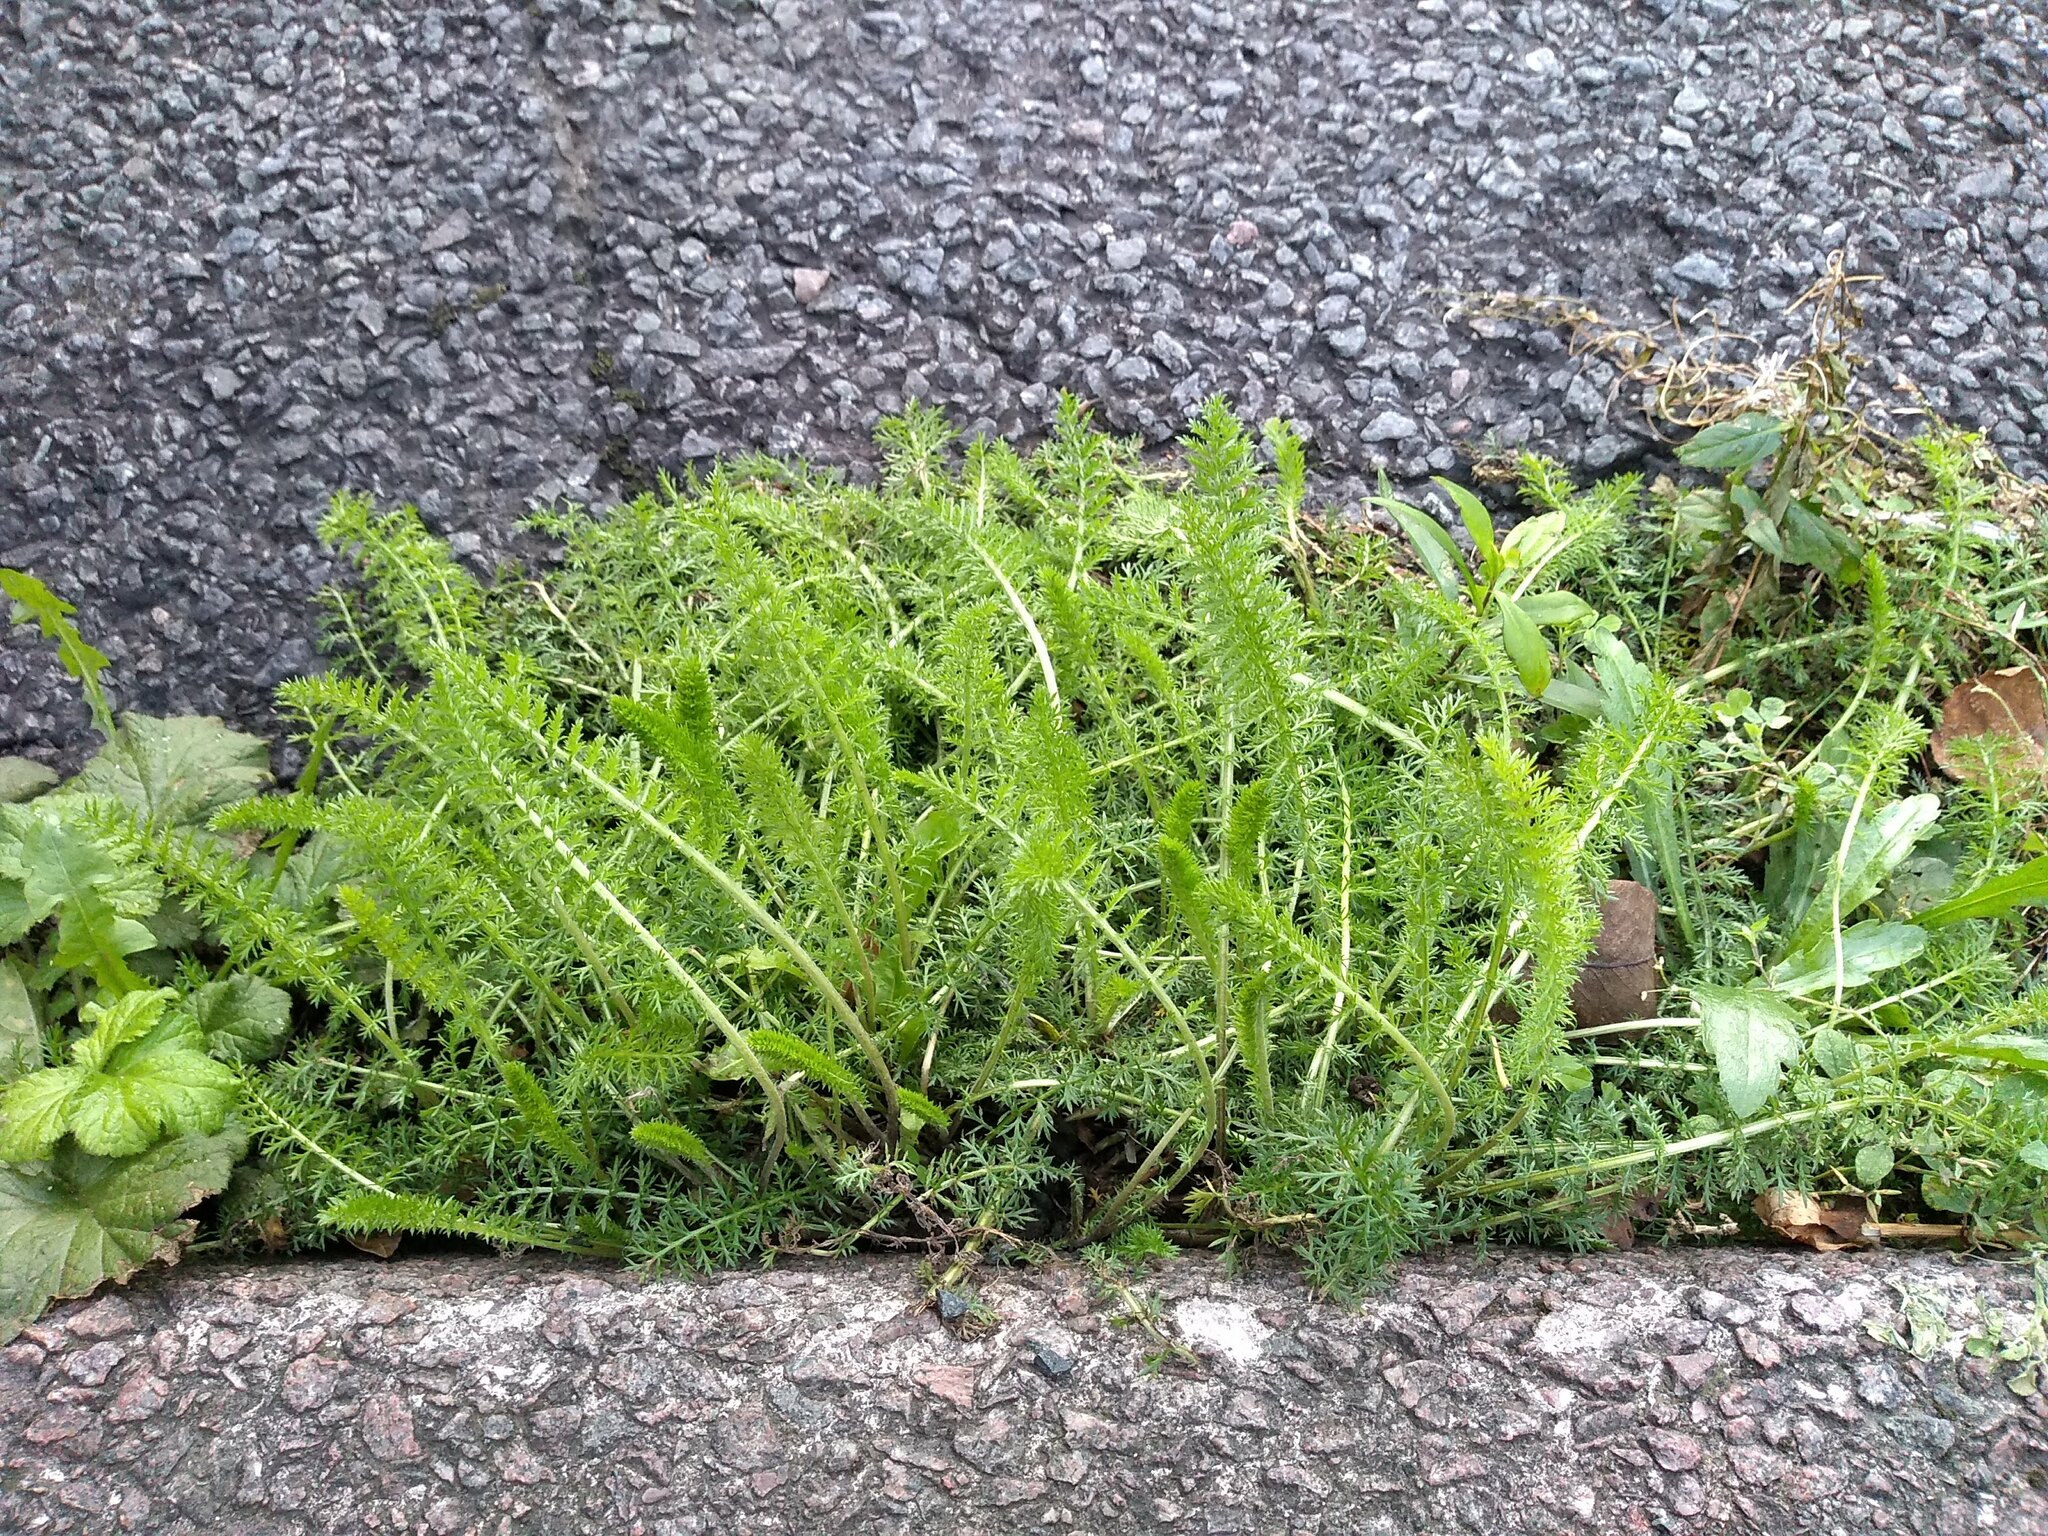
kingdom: Plantae
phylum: Tracheophyta
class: Magnoliopsida
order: Asterales
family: Asteraceae
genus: Achillea
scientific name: Achillea millefolium
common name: Yarrow
